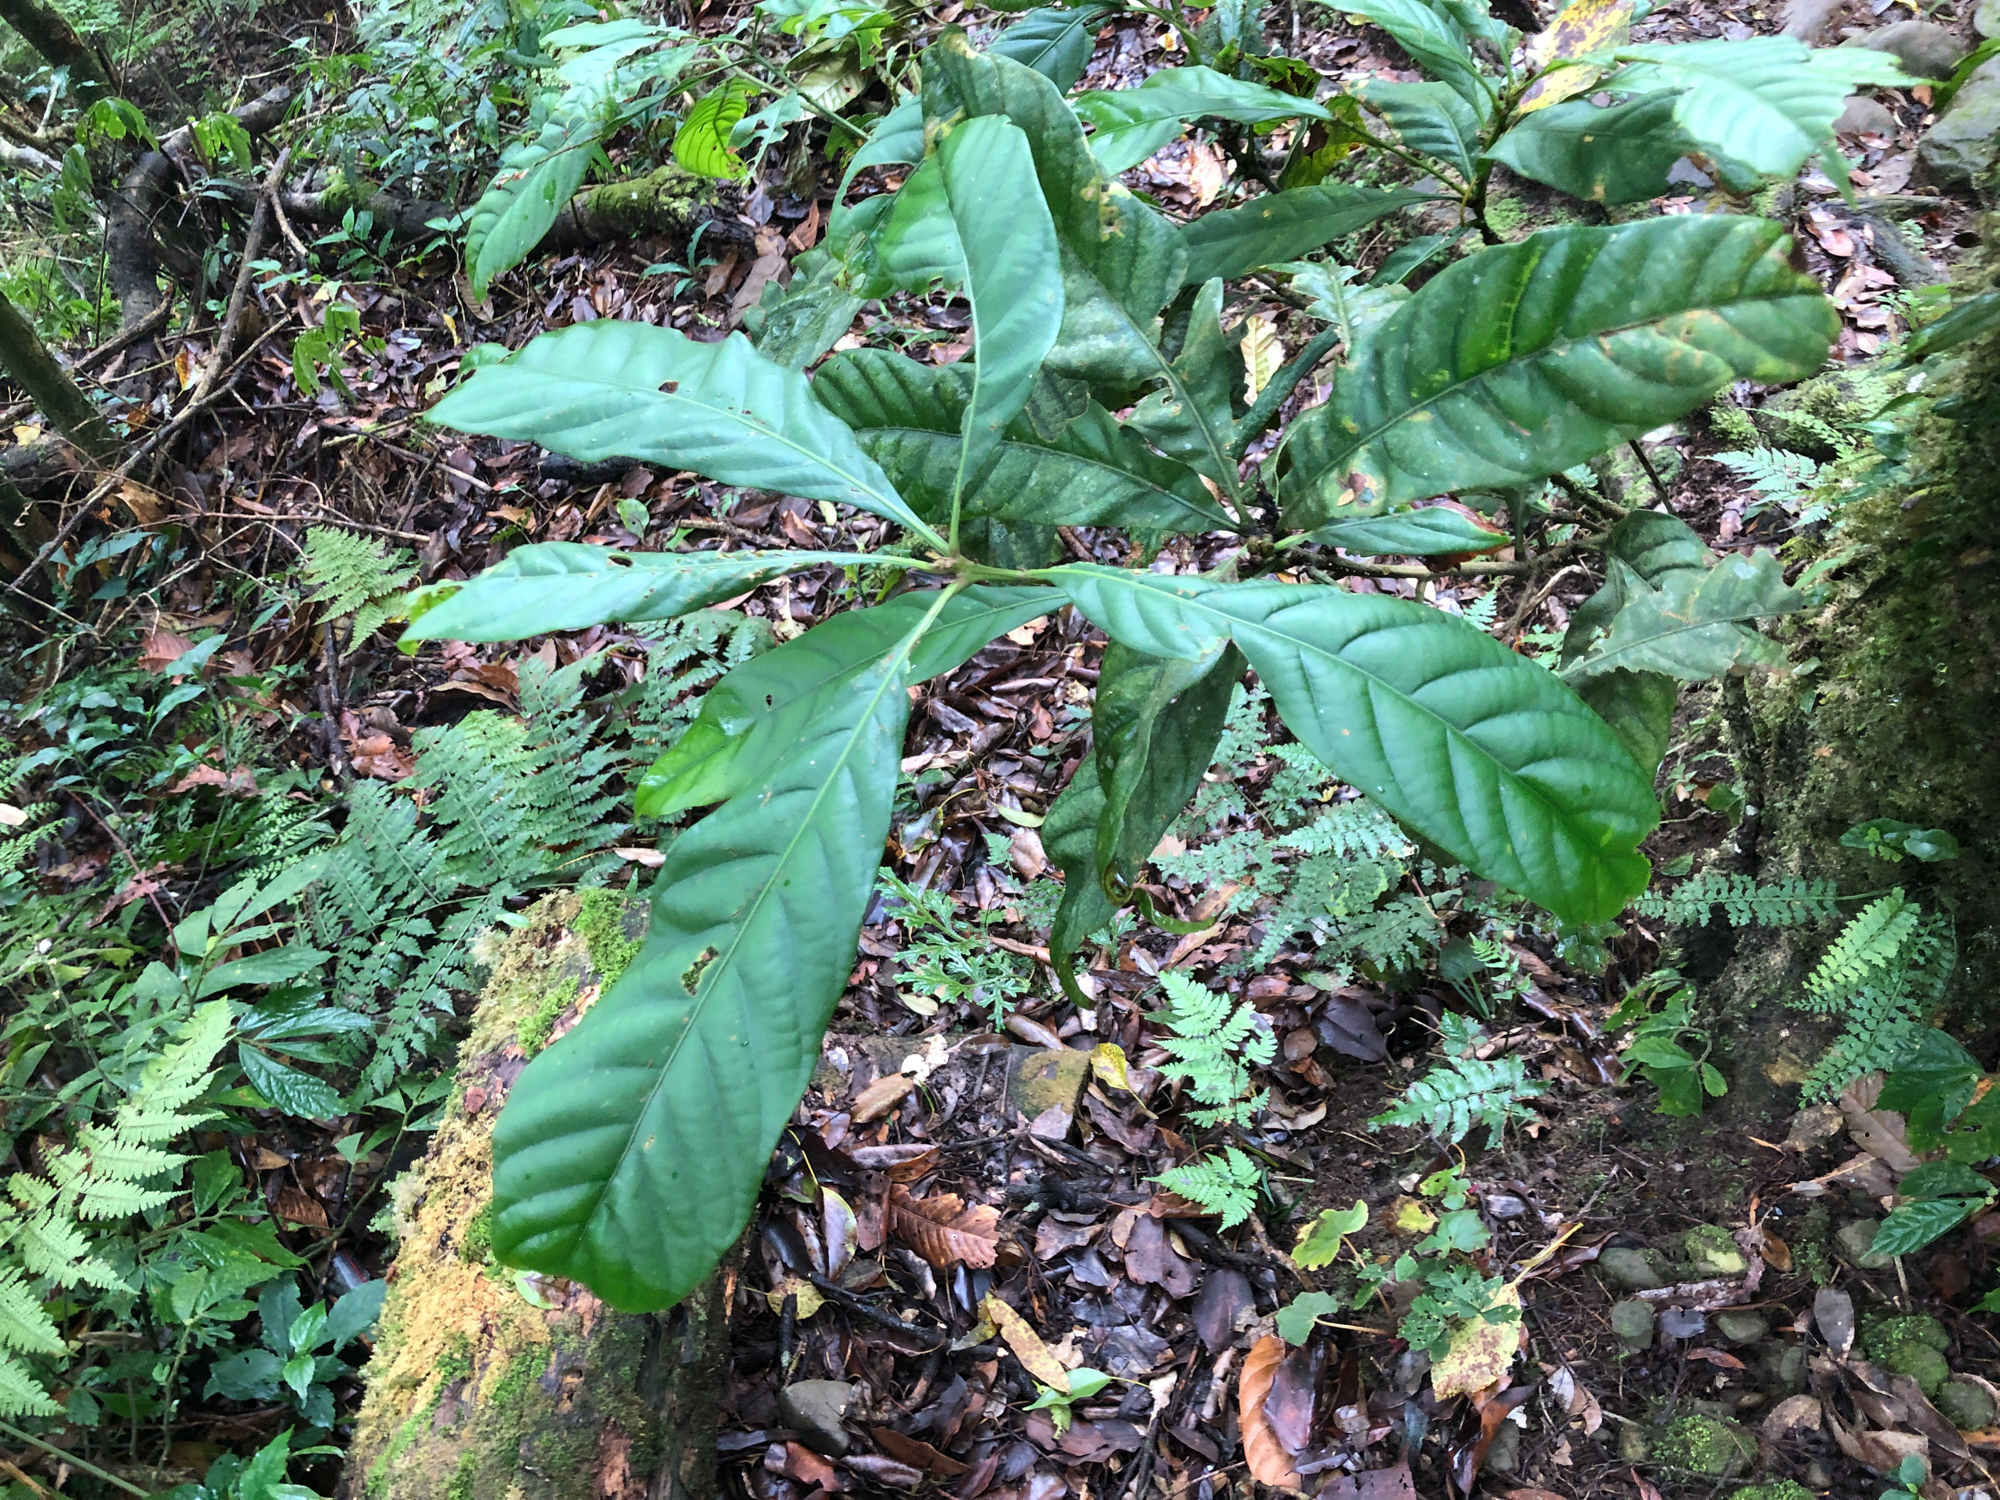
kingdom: Plantae
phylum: Tracheophyta
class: Magnoliopsida
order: Fagales
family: Fagaceae
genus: Lithocarpus
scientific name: Lithocarpus kawakamii
